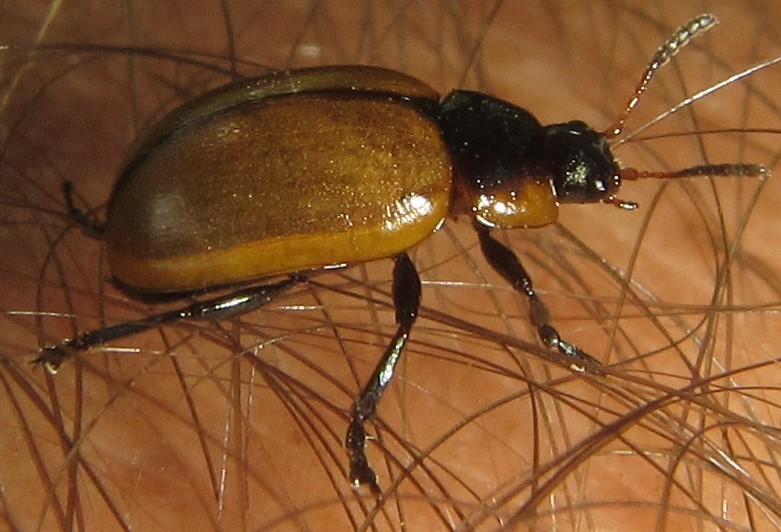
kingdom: Animalia
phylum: Arthropoda
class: Insecta
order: Coleoptera
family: Chrysomelidae
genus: Mesoplatys
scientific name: Mesoplatys
